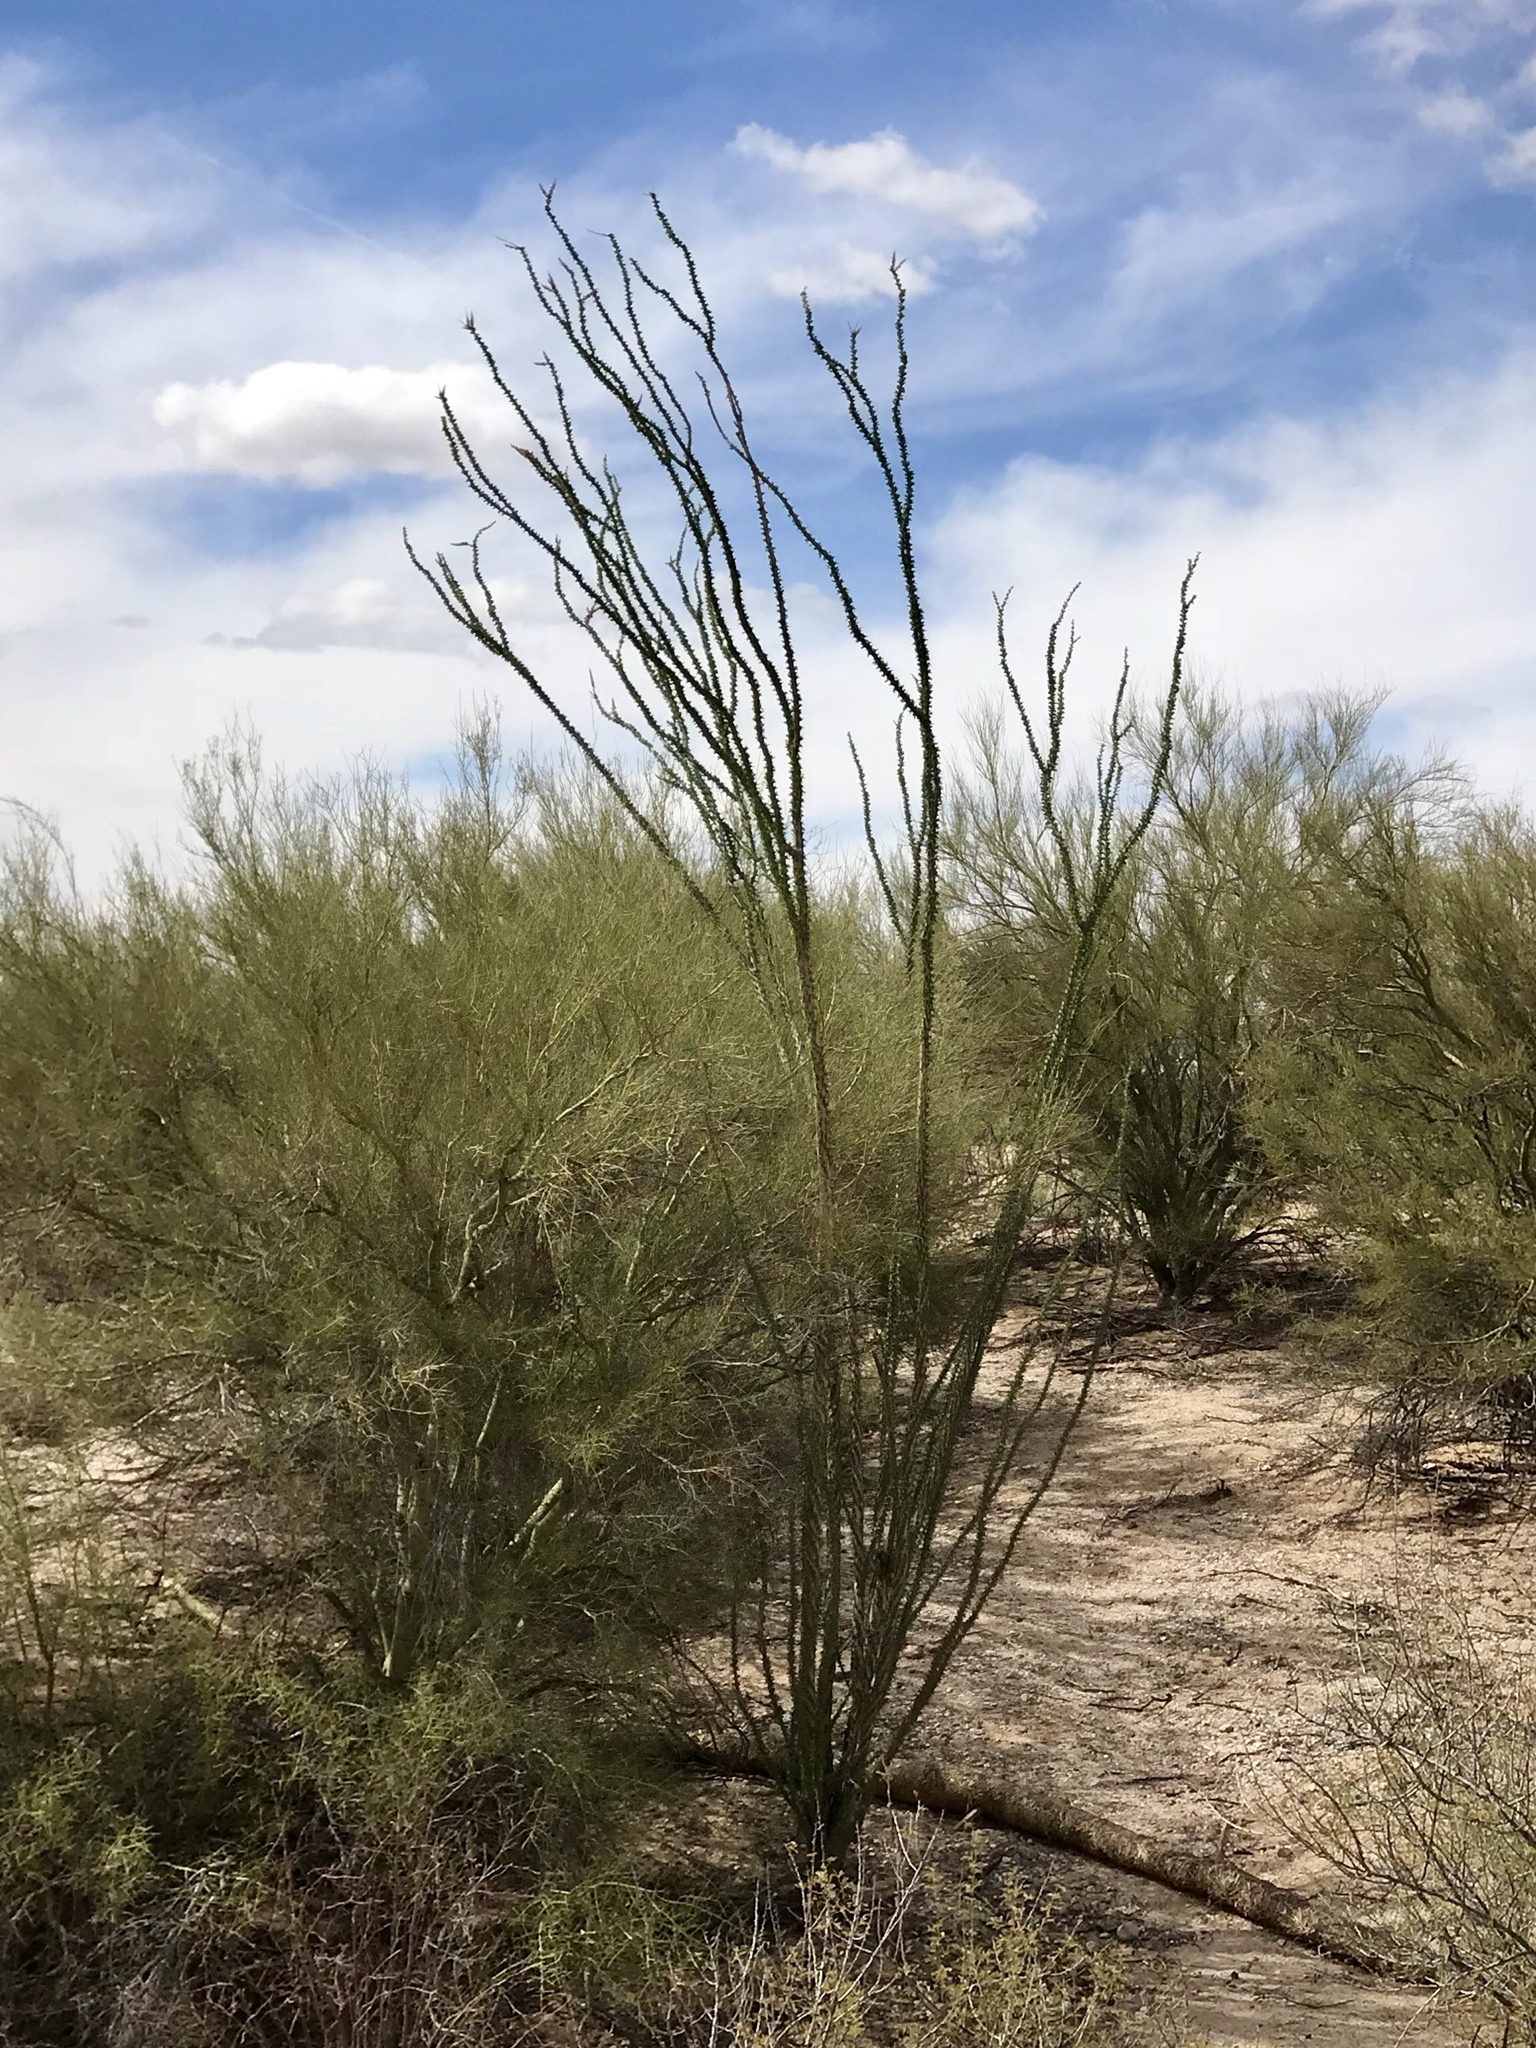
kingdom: Plantae
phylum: Tracheophyta
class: Magnoliopsida
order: Ericales
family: Fouquieriaceae
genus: Fouquieria
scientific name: Fouquieria splendens
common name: Vine-cactus
